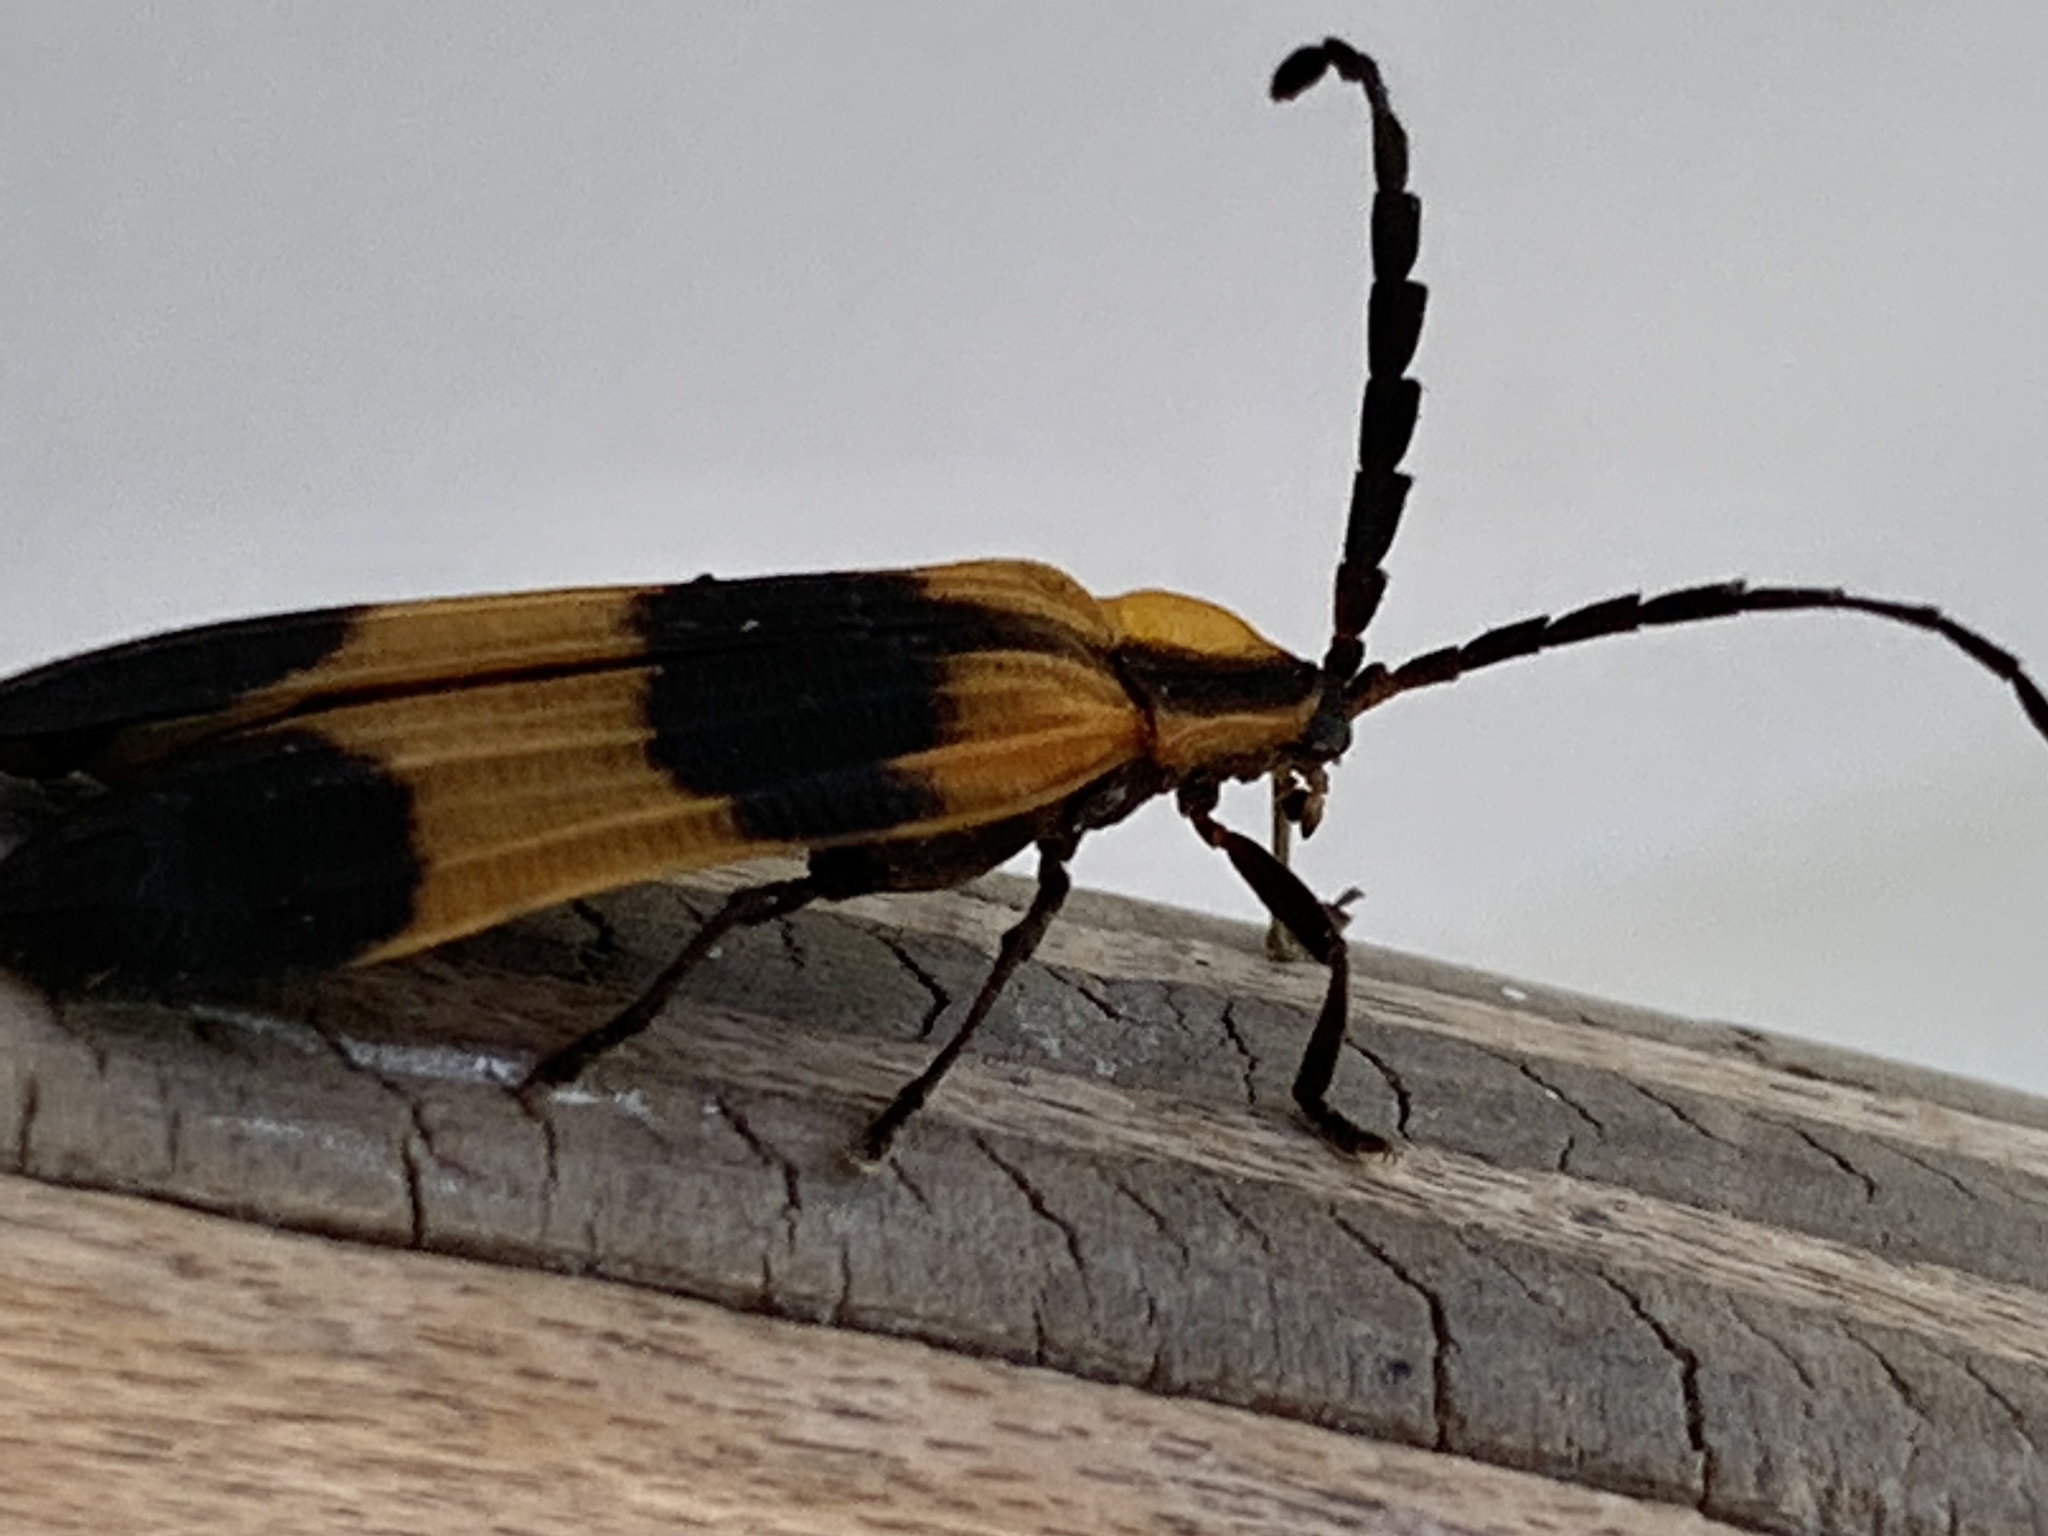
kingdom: Animalia
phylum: Arthropoda
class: Insecta
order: Coleoptera
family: Lycidae
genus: Calopteron
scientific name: Calopteron reticulatum
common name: Banded net-winged beetle
